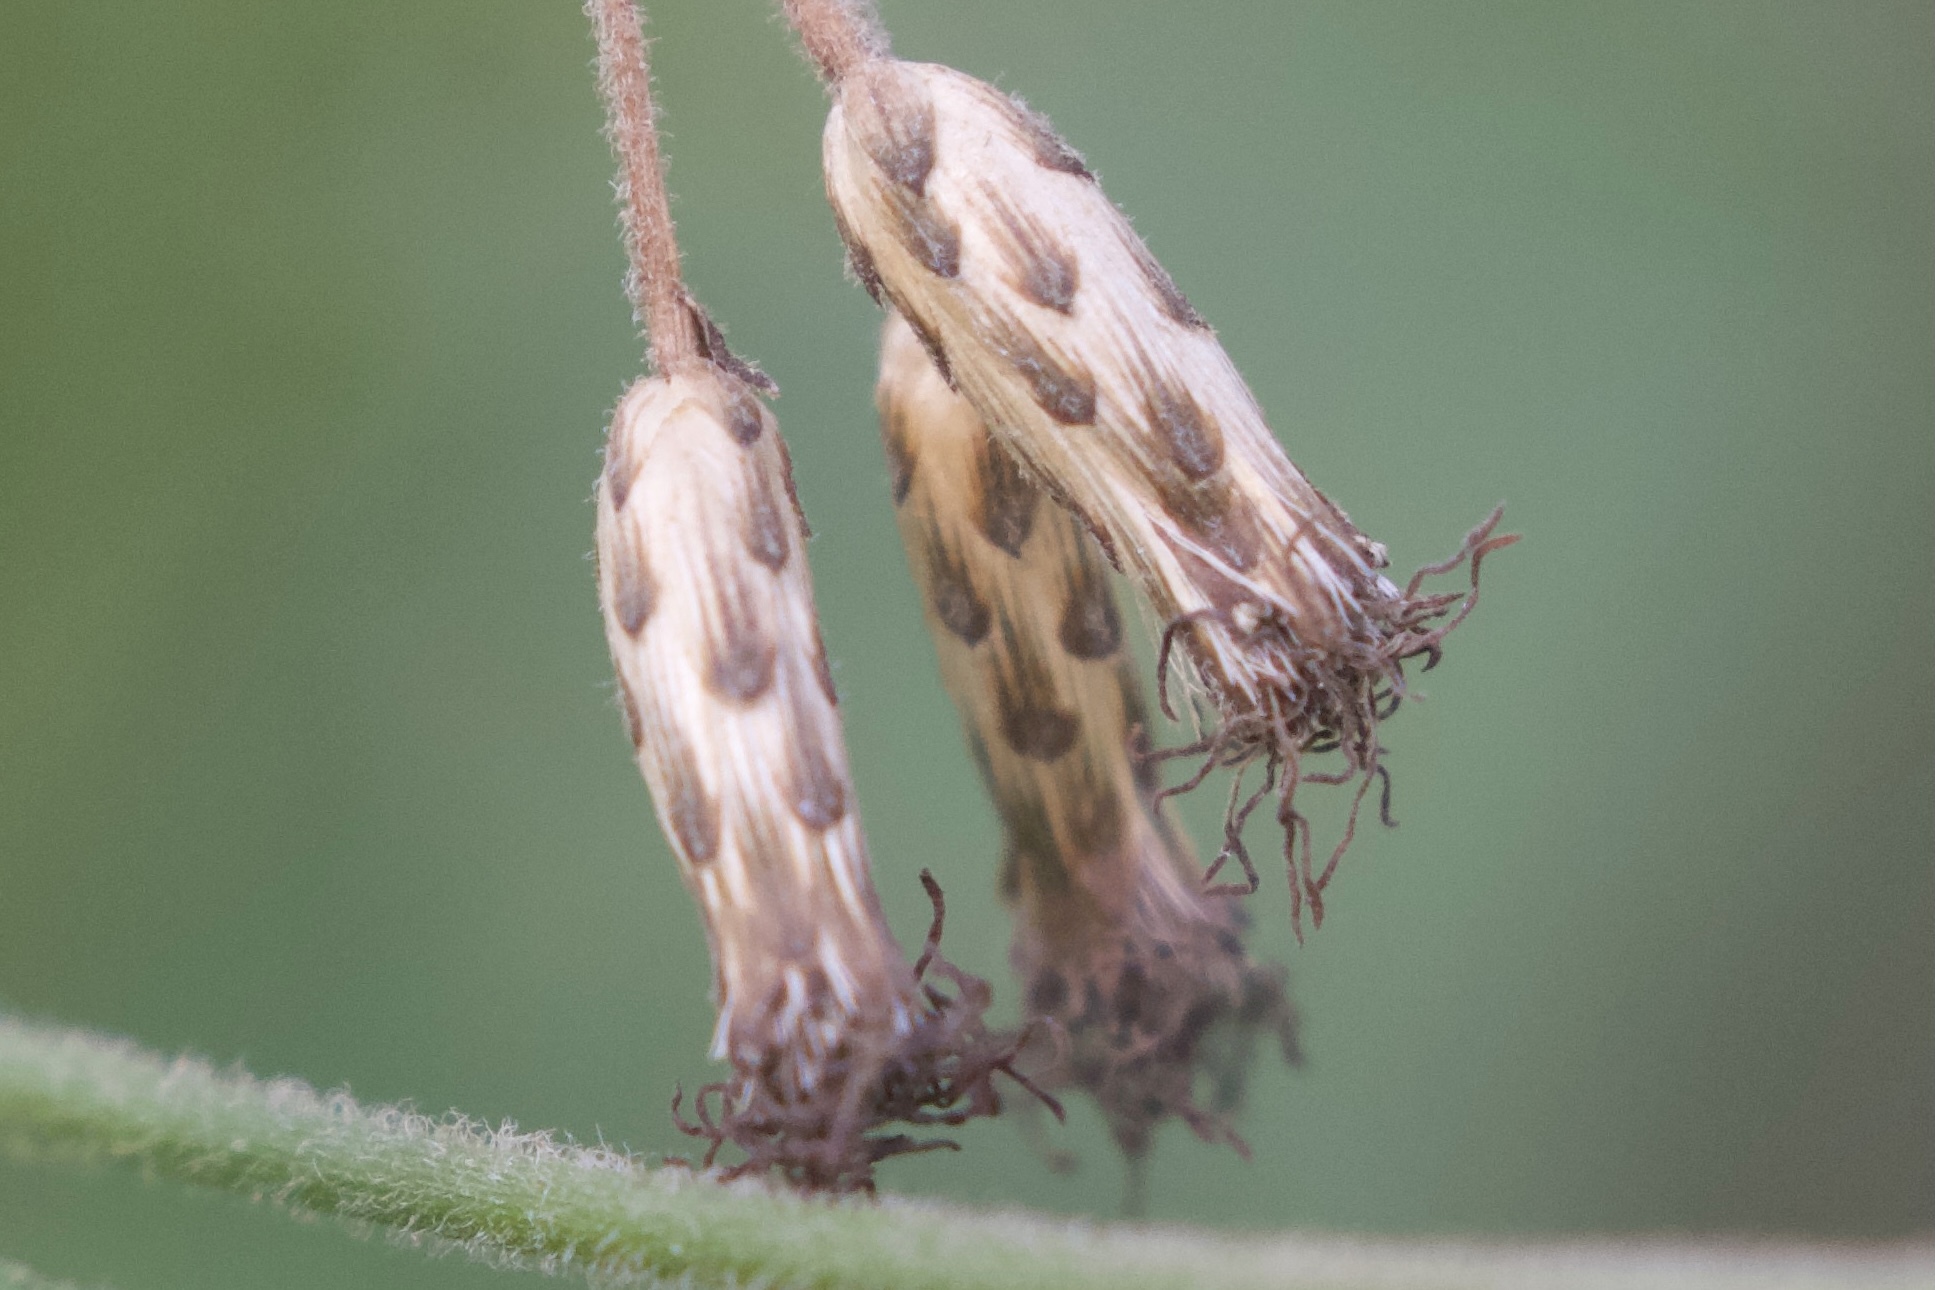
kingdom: Plantae
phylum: Tracheophyta
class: Magnoliopsida
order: Asterales
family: Asteraceae
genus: Chromolaena
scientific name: Chromolaena odorata
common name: Siamweed
